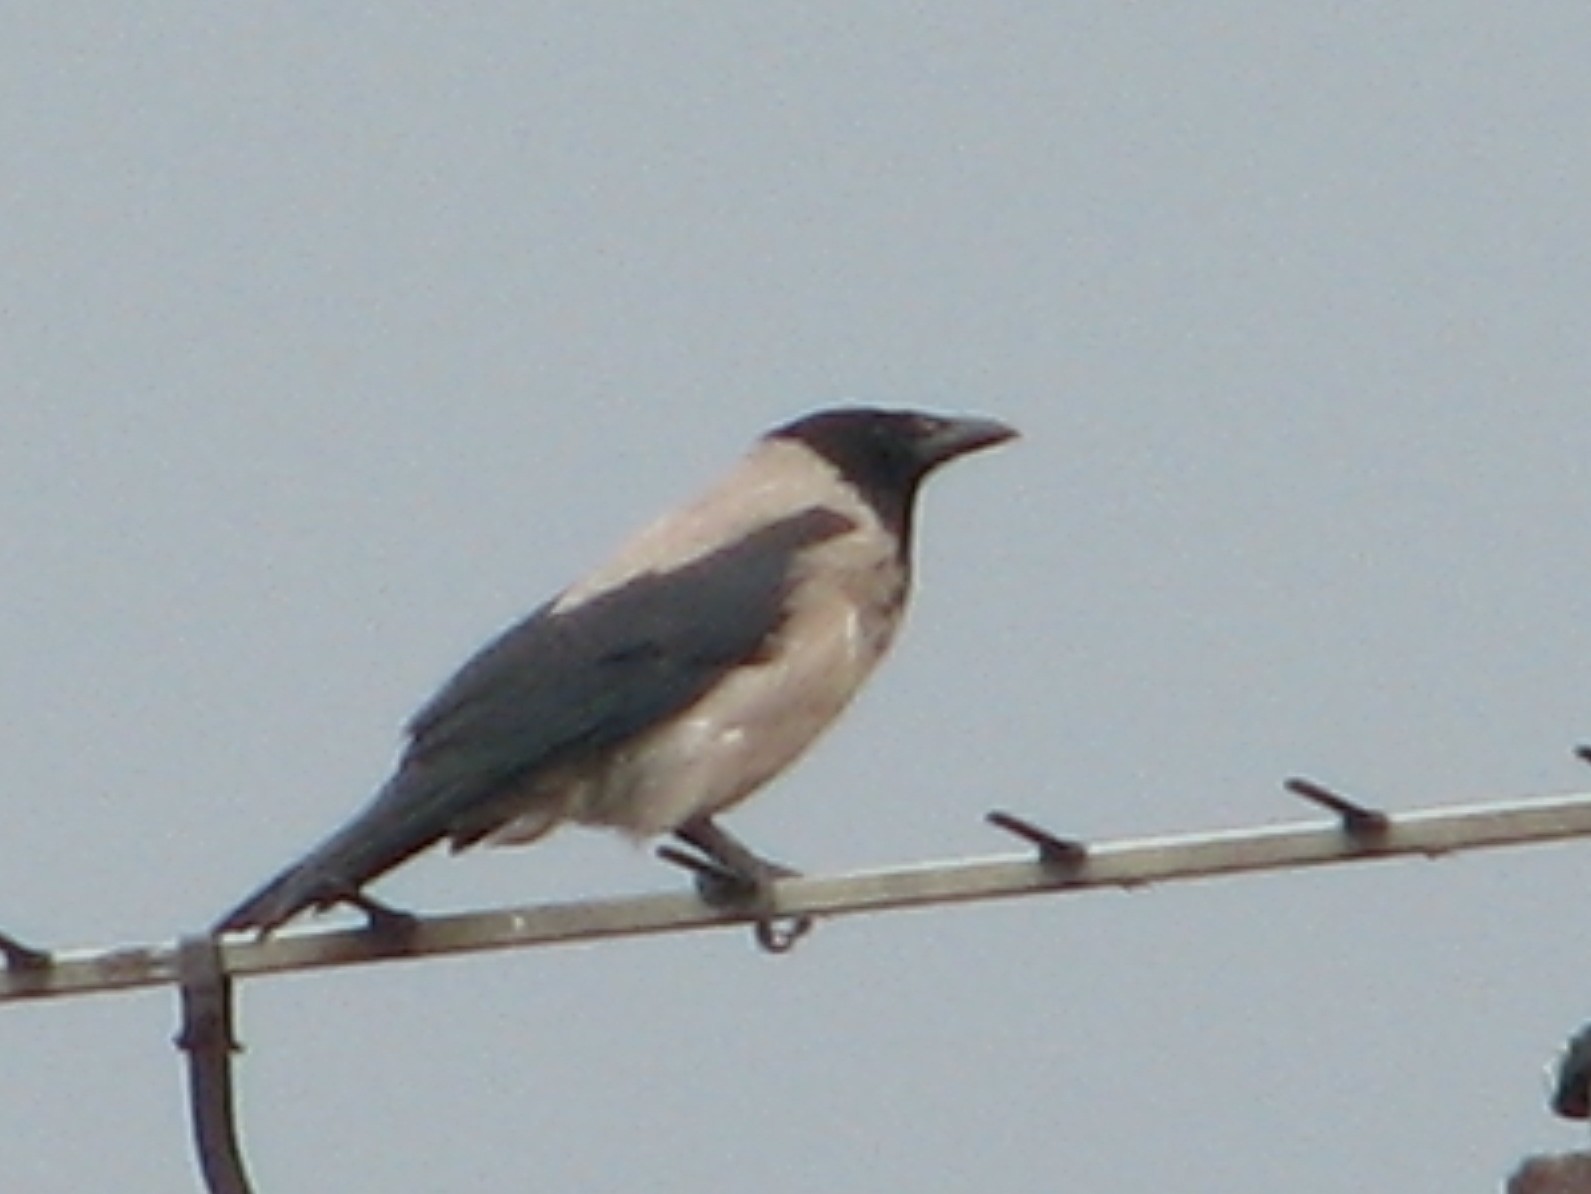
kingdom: Animalia
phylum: Chordata
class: Aves
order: Passeriformes
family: Corvidae
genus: Corvus
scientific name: Corvus cornix
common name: Hooded crow
